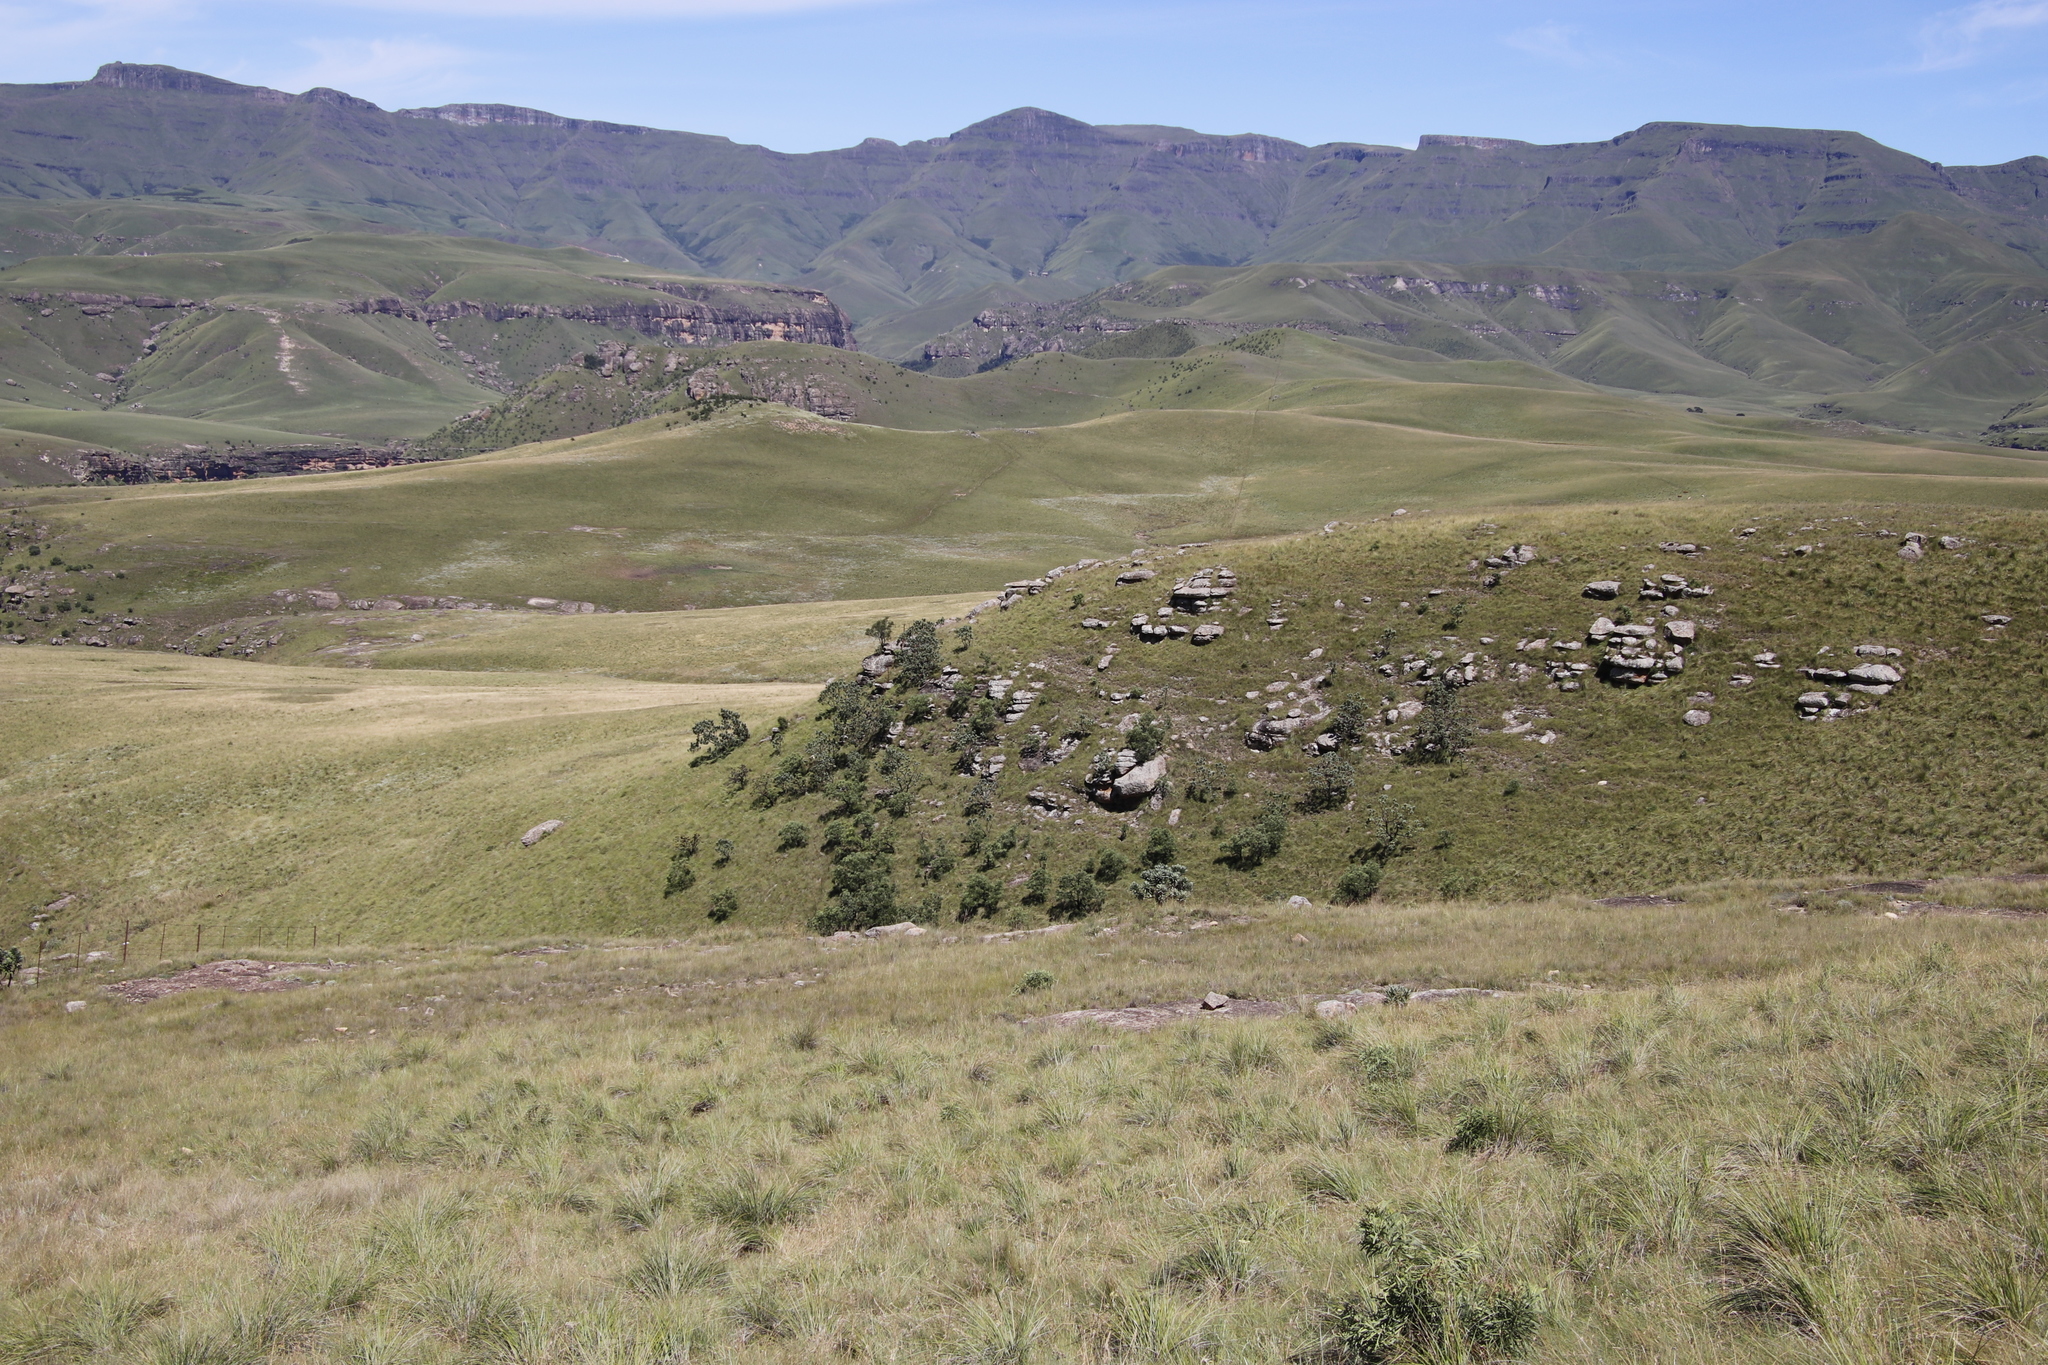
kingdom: Plantae
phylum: Tracheophyta
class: Magnoliopsida
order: Proteales
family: Proteaceae
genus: Protea
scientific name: Protea roupelliae
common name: Silver sugarbush
